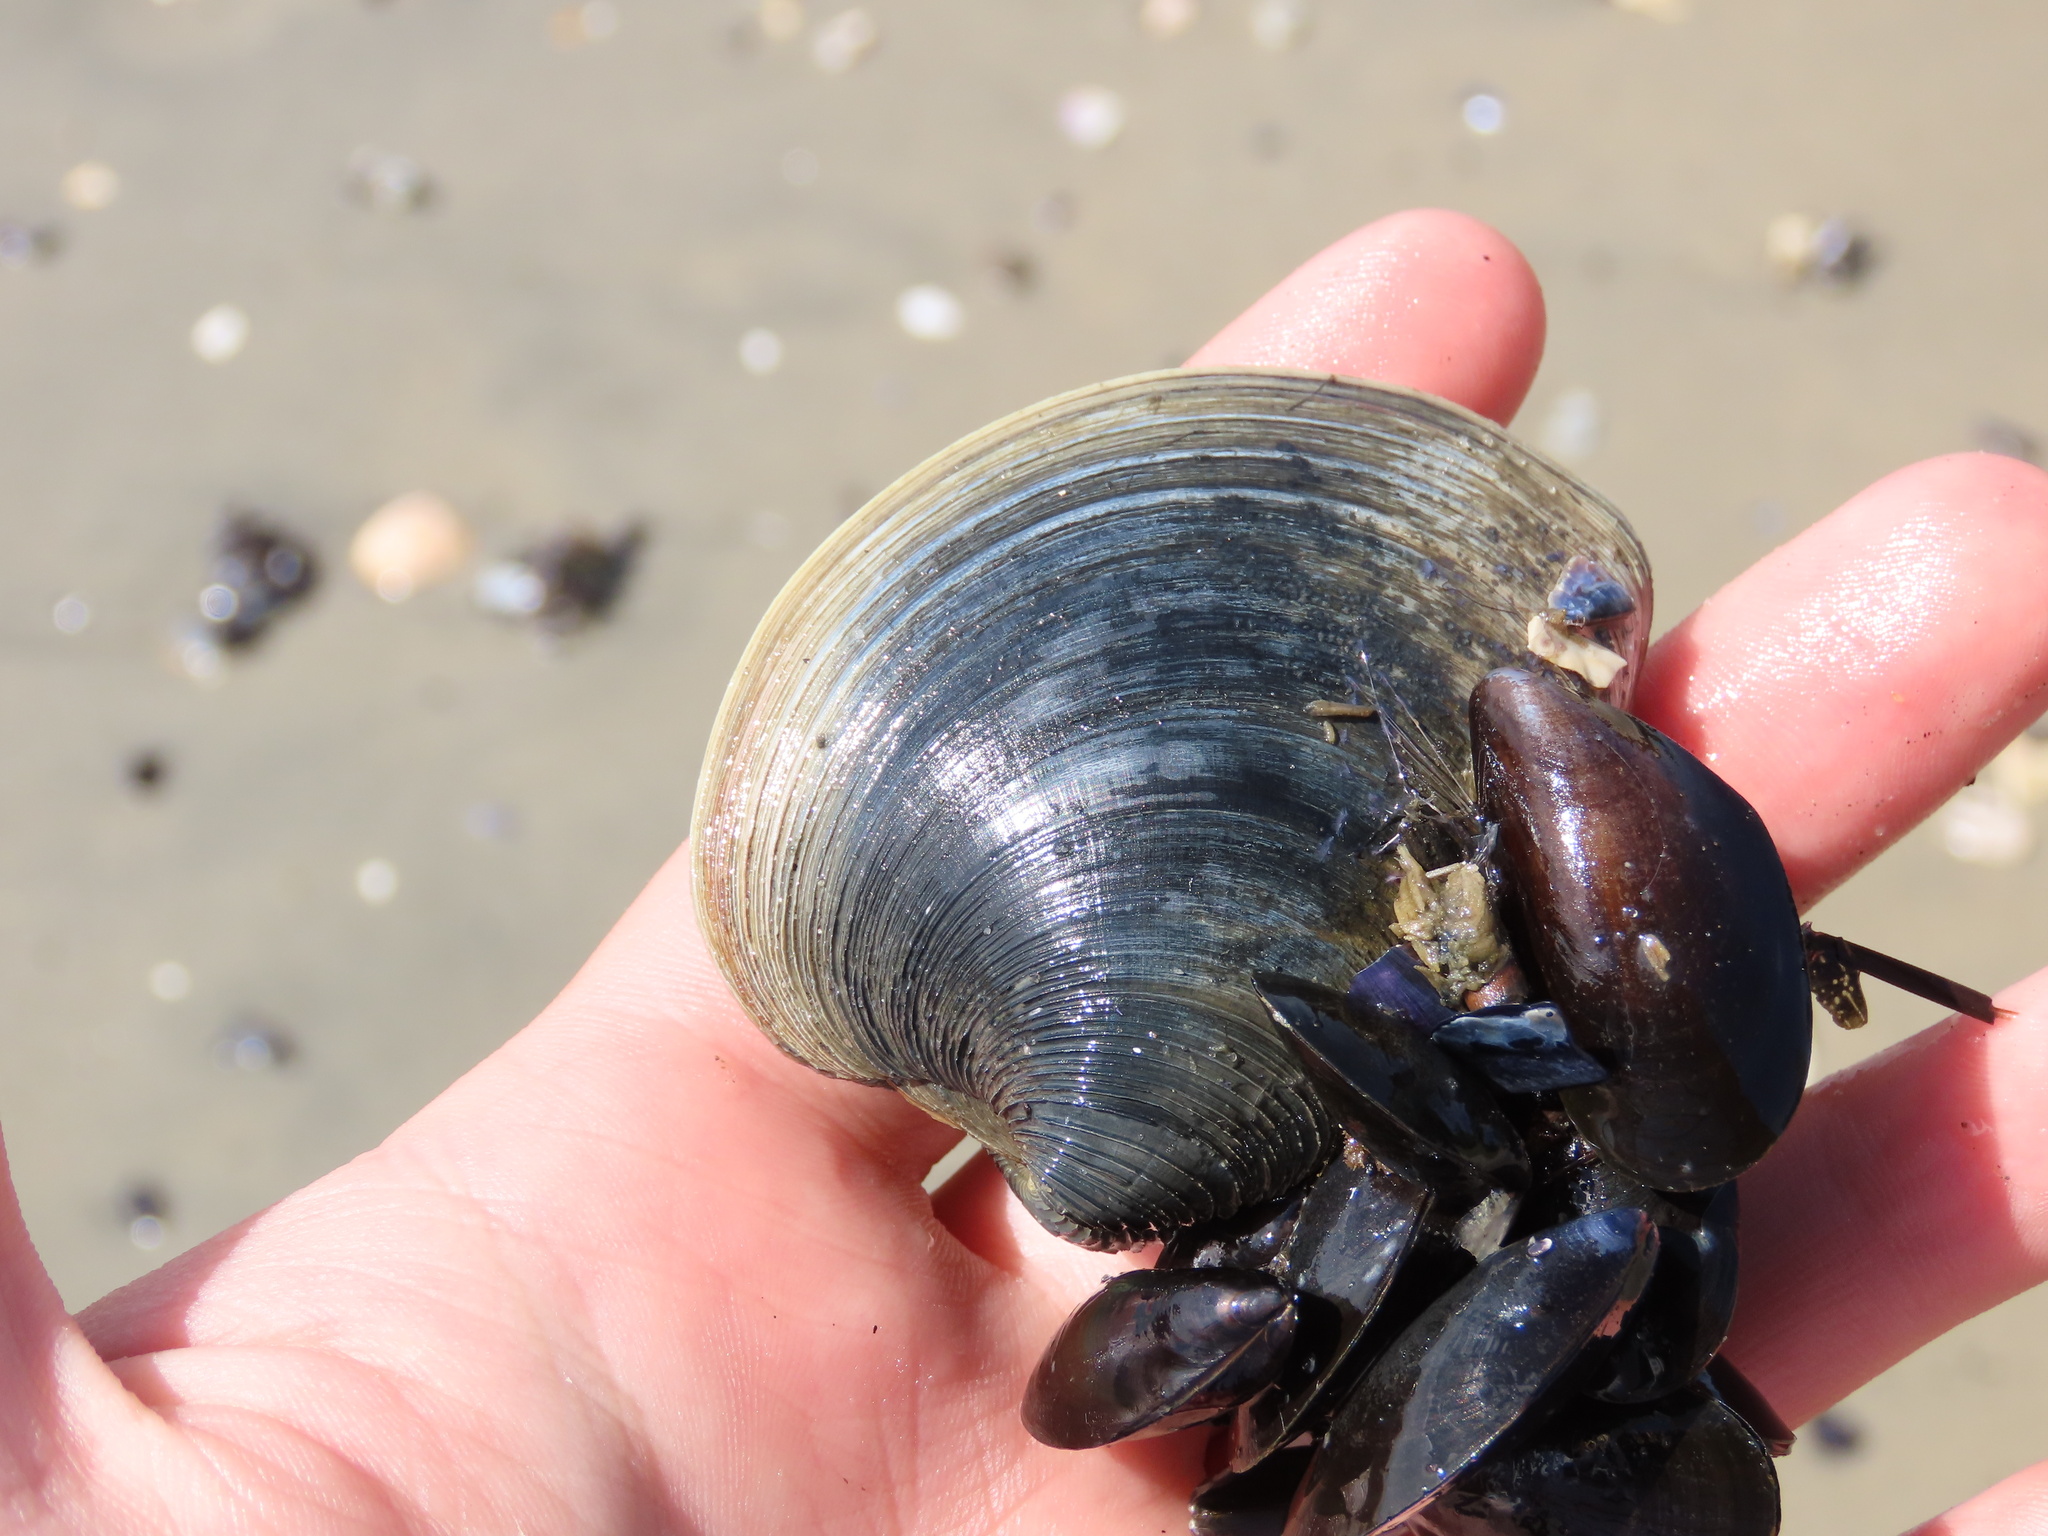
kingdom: Animalia
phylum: Mollusca
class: Bivalvia
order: Venerida
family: Veneridae
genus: Mercenaria
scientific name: Mercenaria mercenaria
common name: American hard-shelled clam
